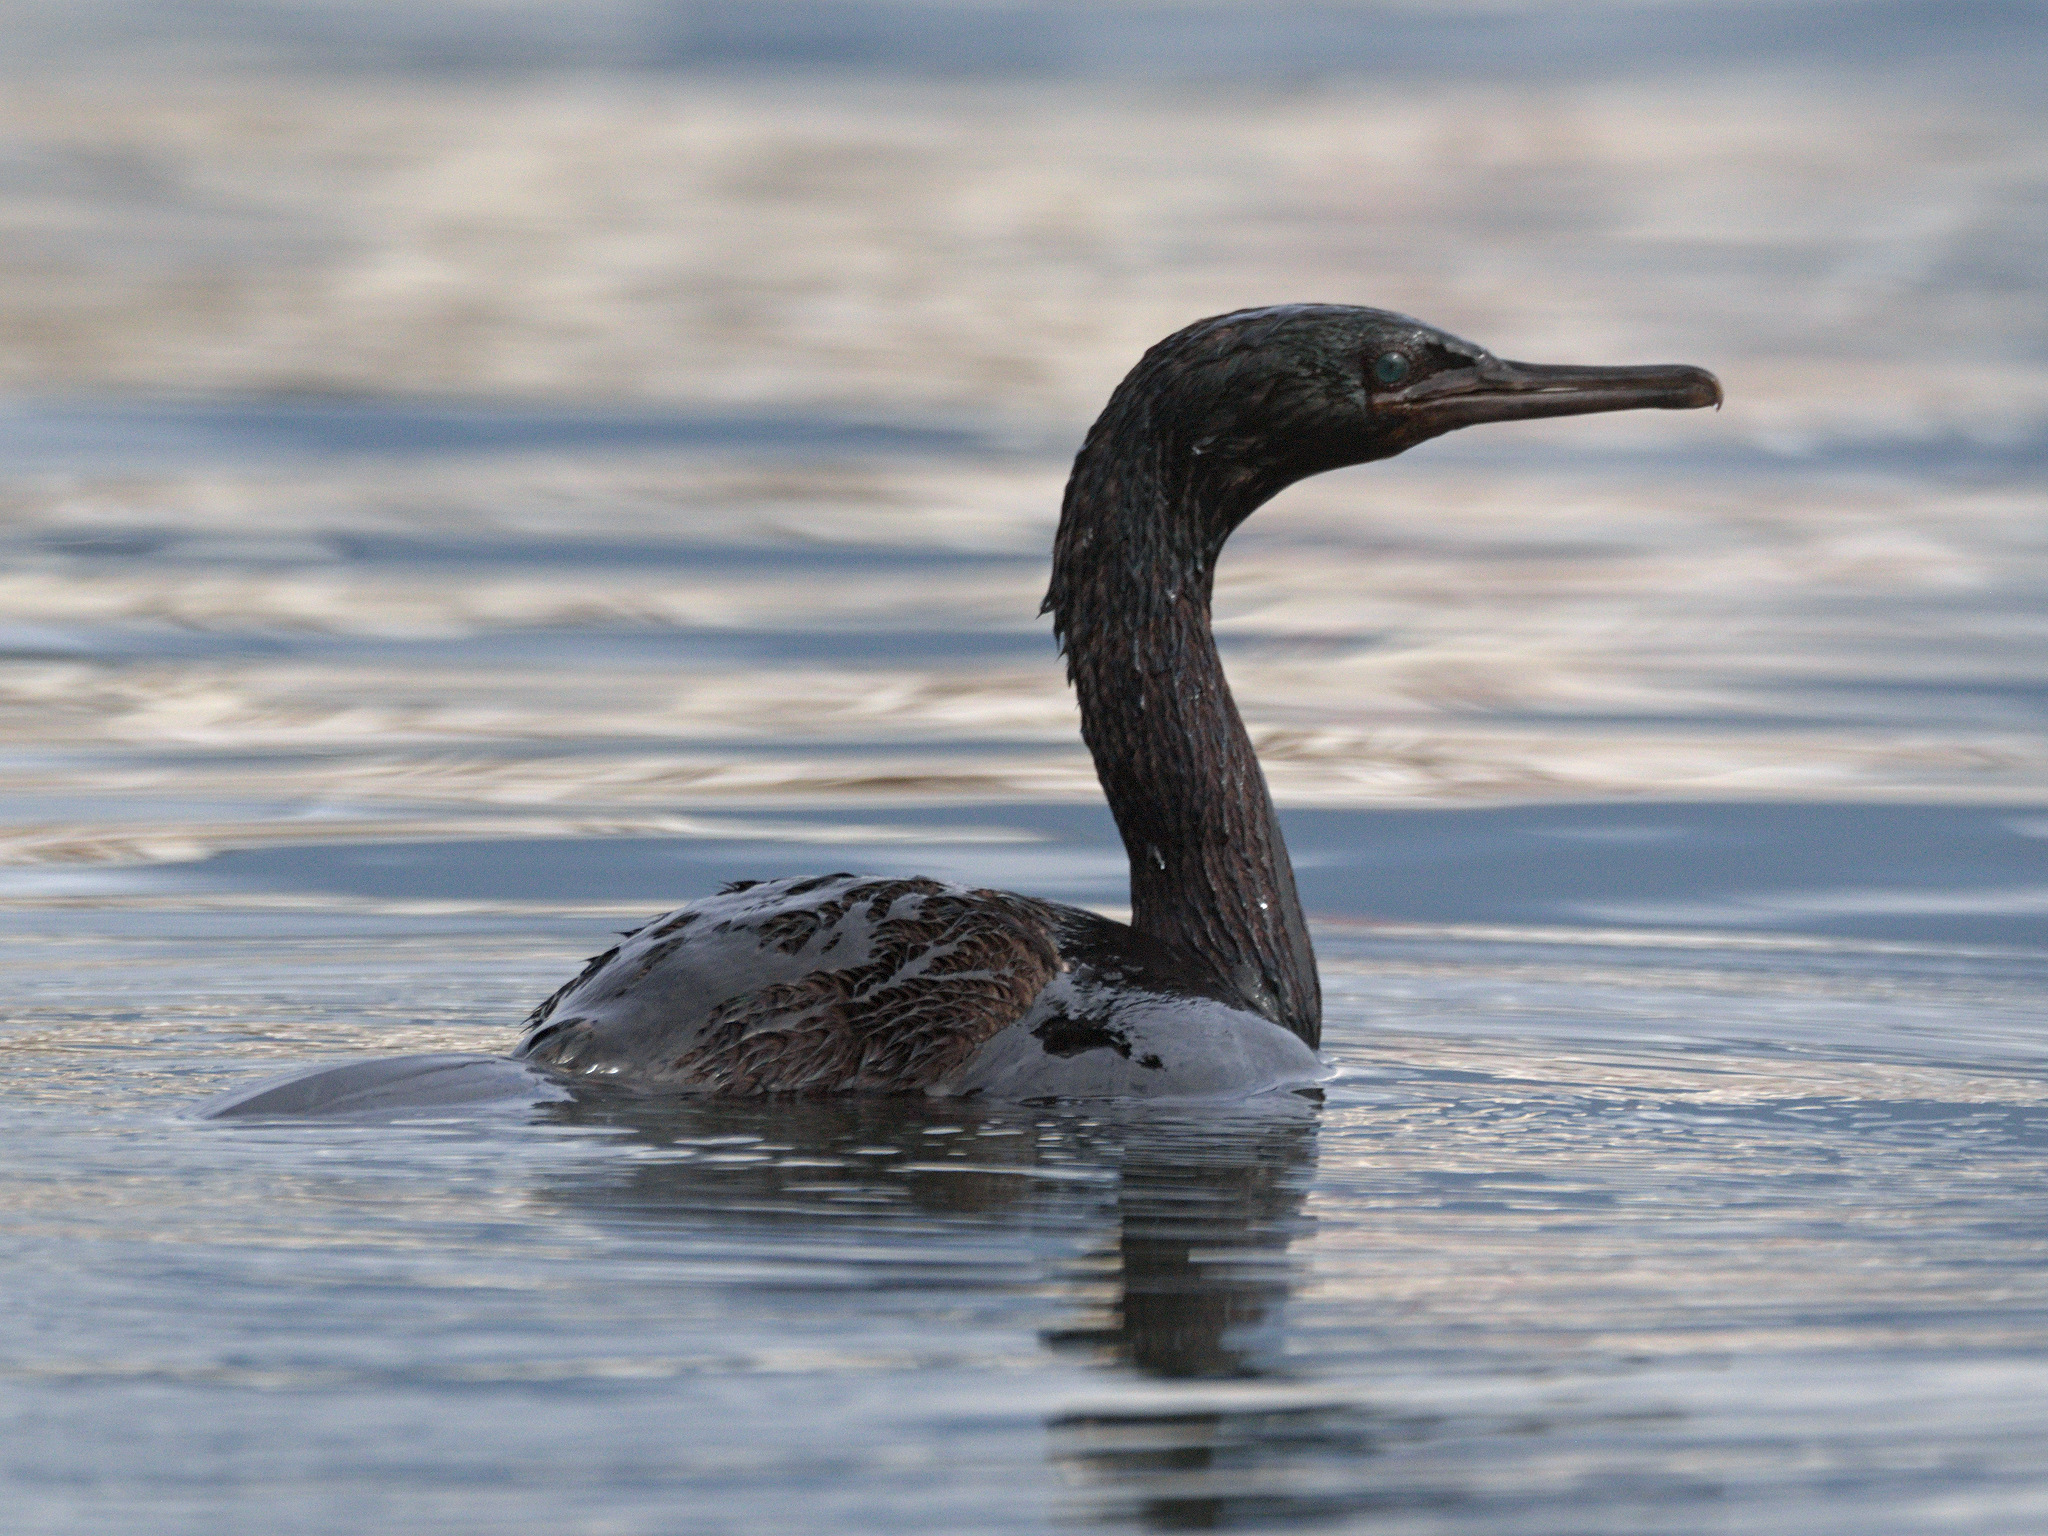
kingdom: Animalia
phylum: Chordata
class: Aves
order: Suliformes
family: Phalacrocoracidae
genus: Phalacrocorax
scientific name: Phalacrocorax pelagicus
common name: Pelagic cormorant
